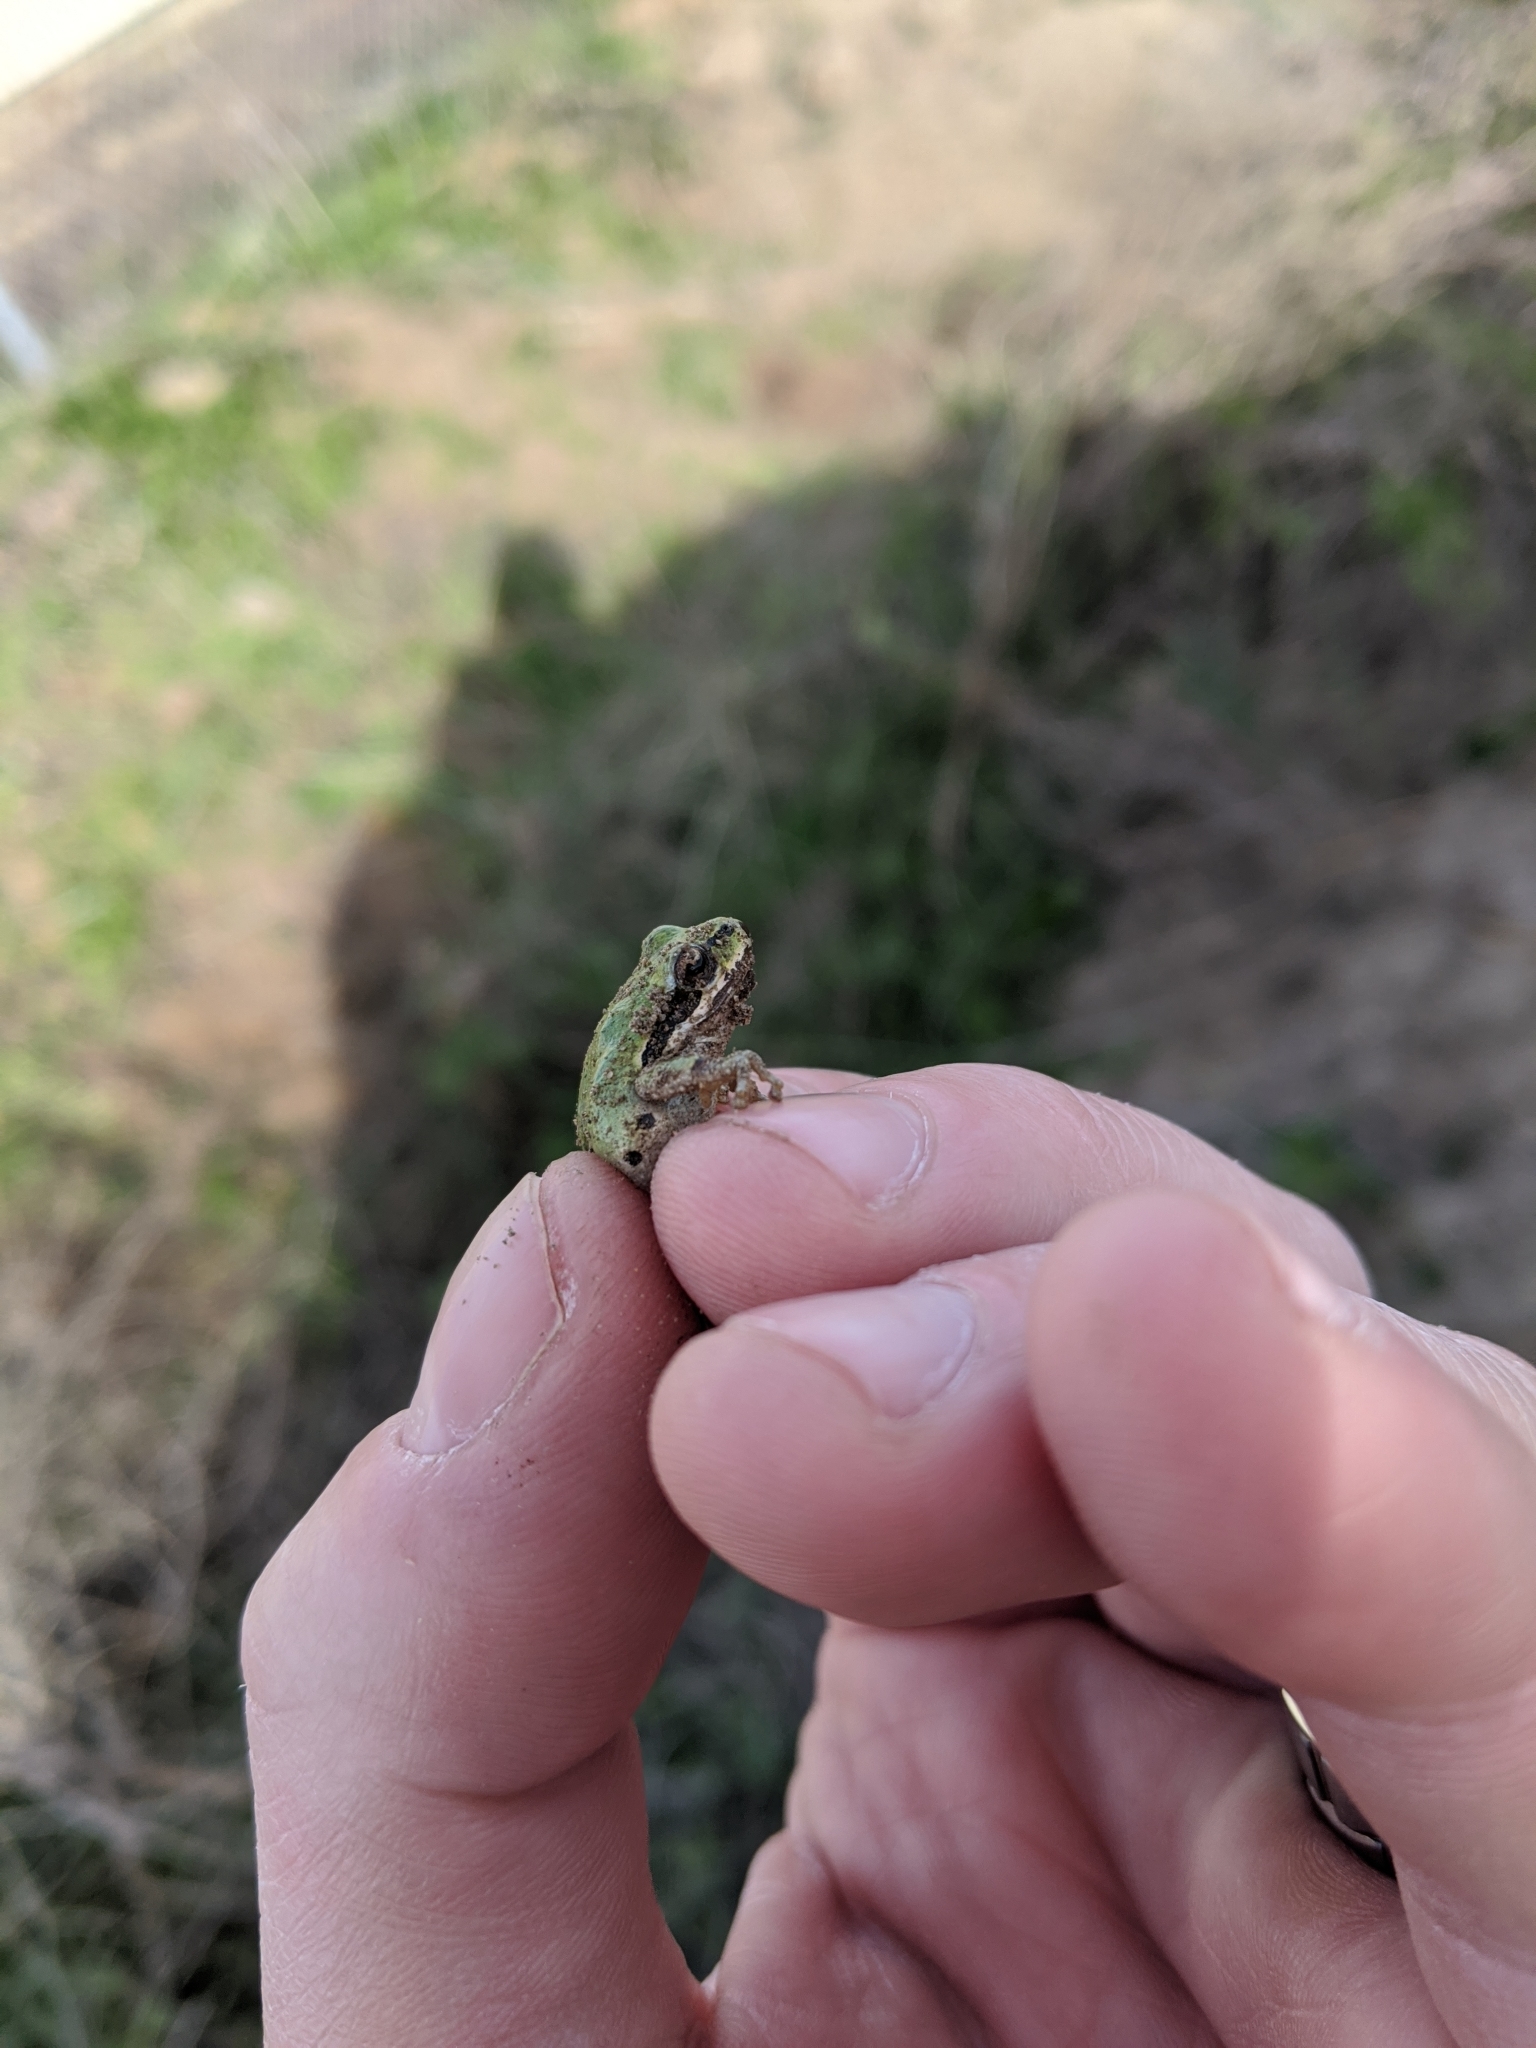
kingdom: Animalia
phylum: Chordata
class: Amphibia
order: Anura
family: Hylidae
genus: Pseudacris
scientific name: Pseudacris regilla
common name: Pacific chorus frog
